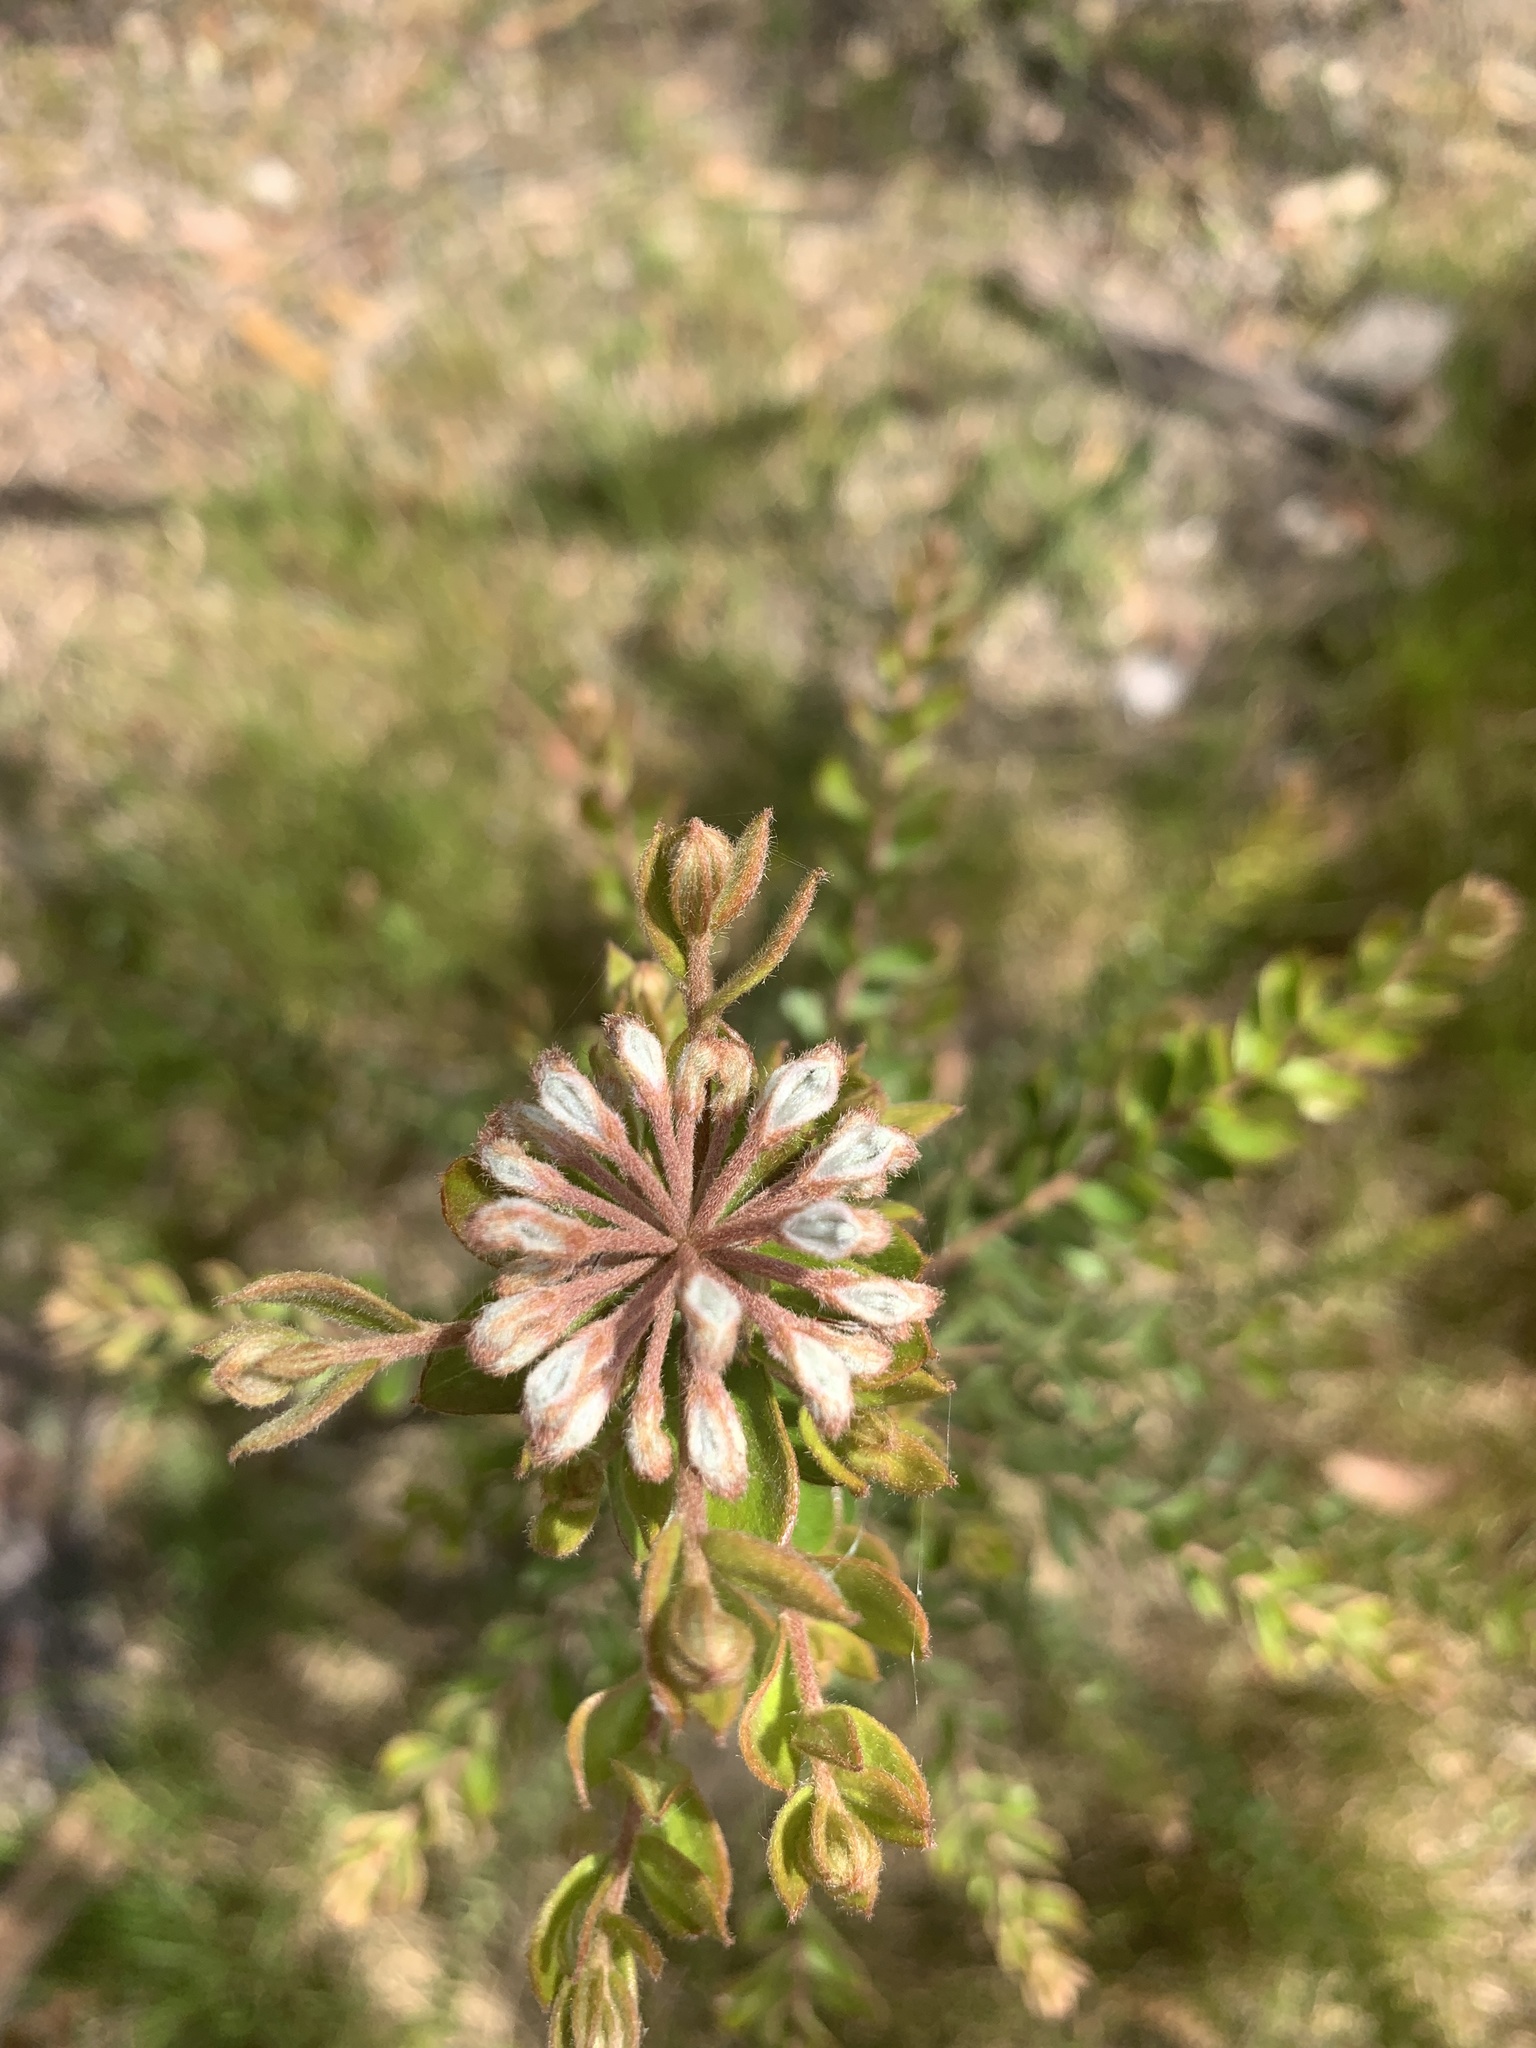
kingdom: Plantae
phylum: Tracheophyta
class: Magnoliopsida
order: Proteales
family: Proteaceae
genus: Grevillea
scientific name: Grevillea buxifolia
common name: Grey spiderflower
